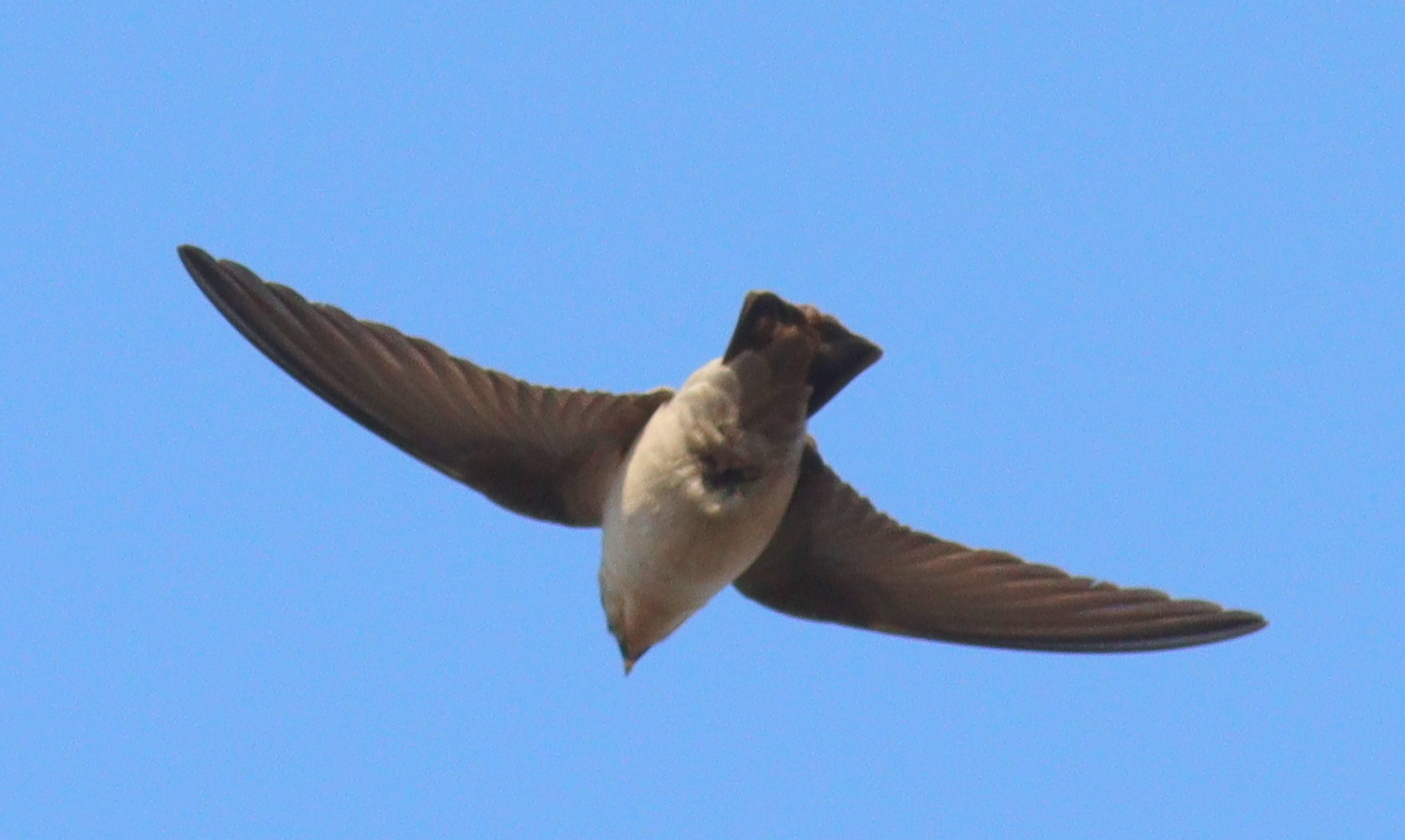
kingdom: Animalia
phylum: Chordata
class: Aves
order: Passeriformes
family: Hirundinidae
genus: Ptyonoprogne
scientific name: Ptyonoprogne fuligula
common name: Rock martin
